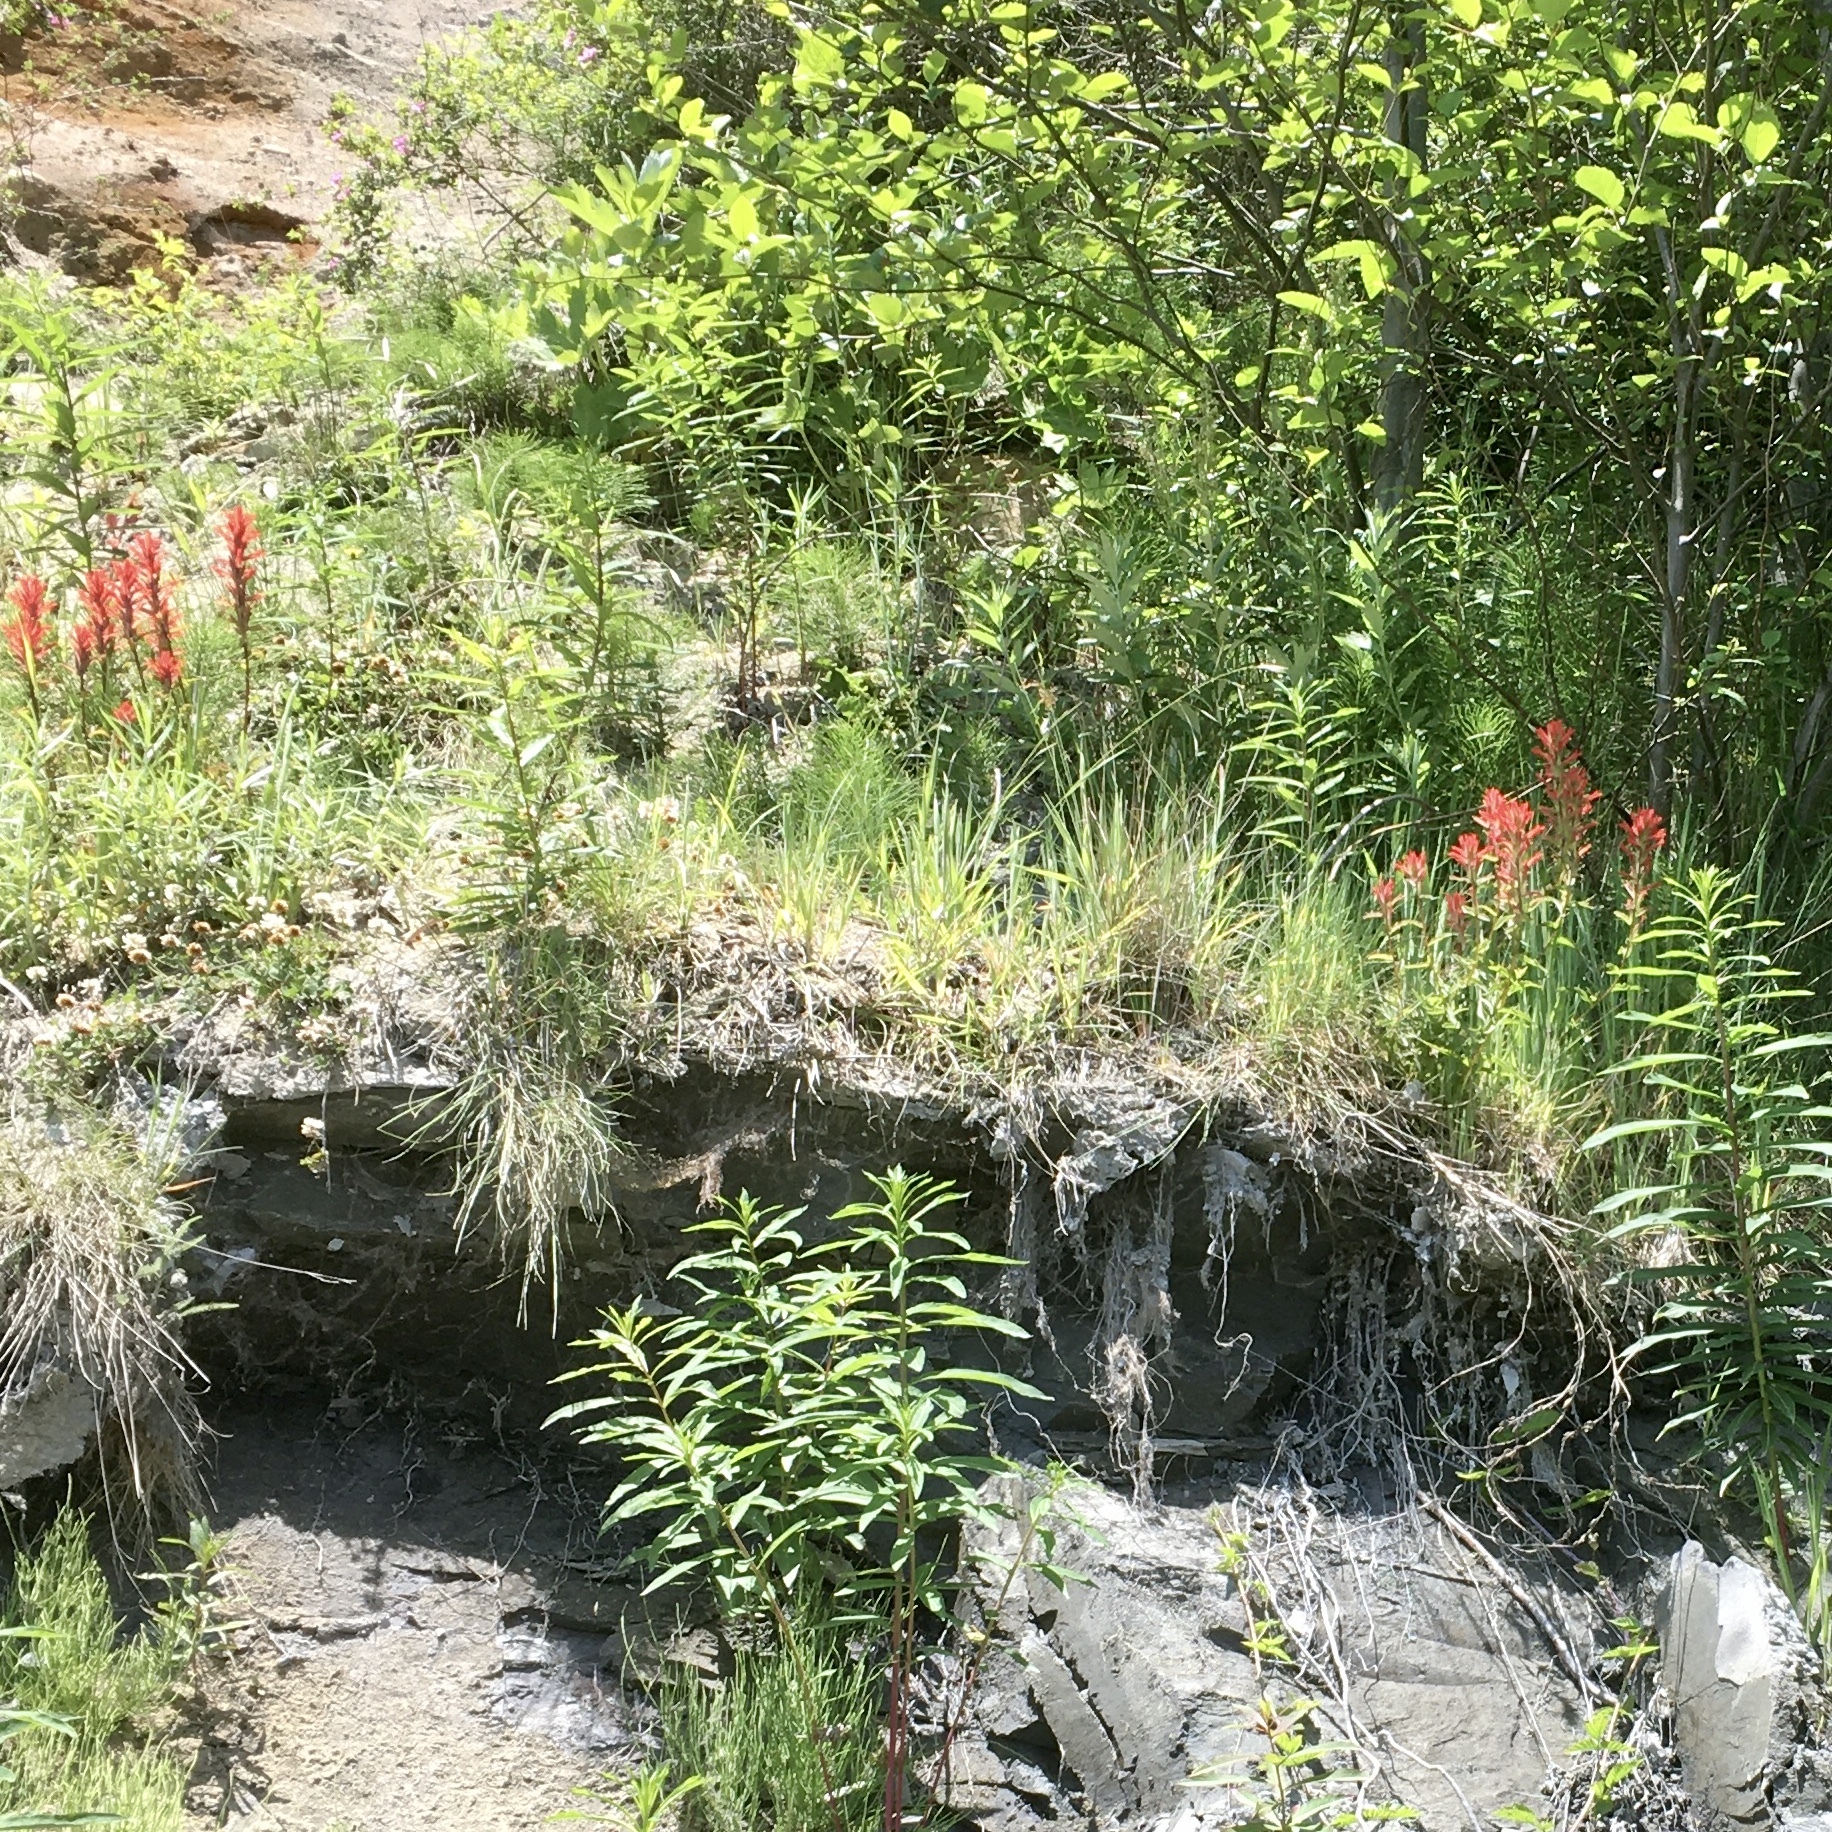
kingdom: Plantae
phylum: Tracheophyta
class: Magnoliopsida
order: Lamiales
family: Orobanchaceae
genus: Castilleja
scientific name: Castilleja miniata
